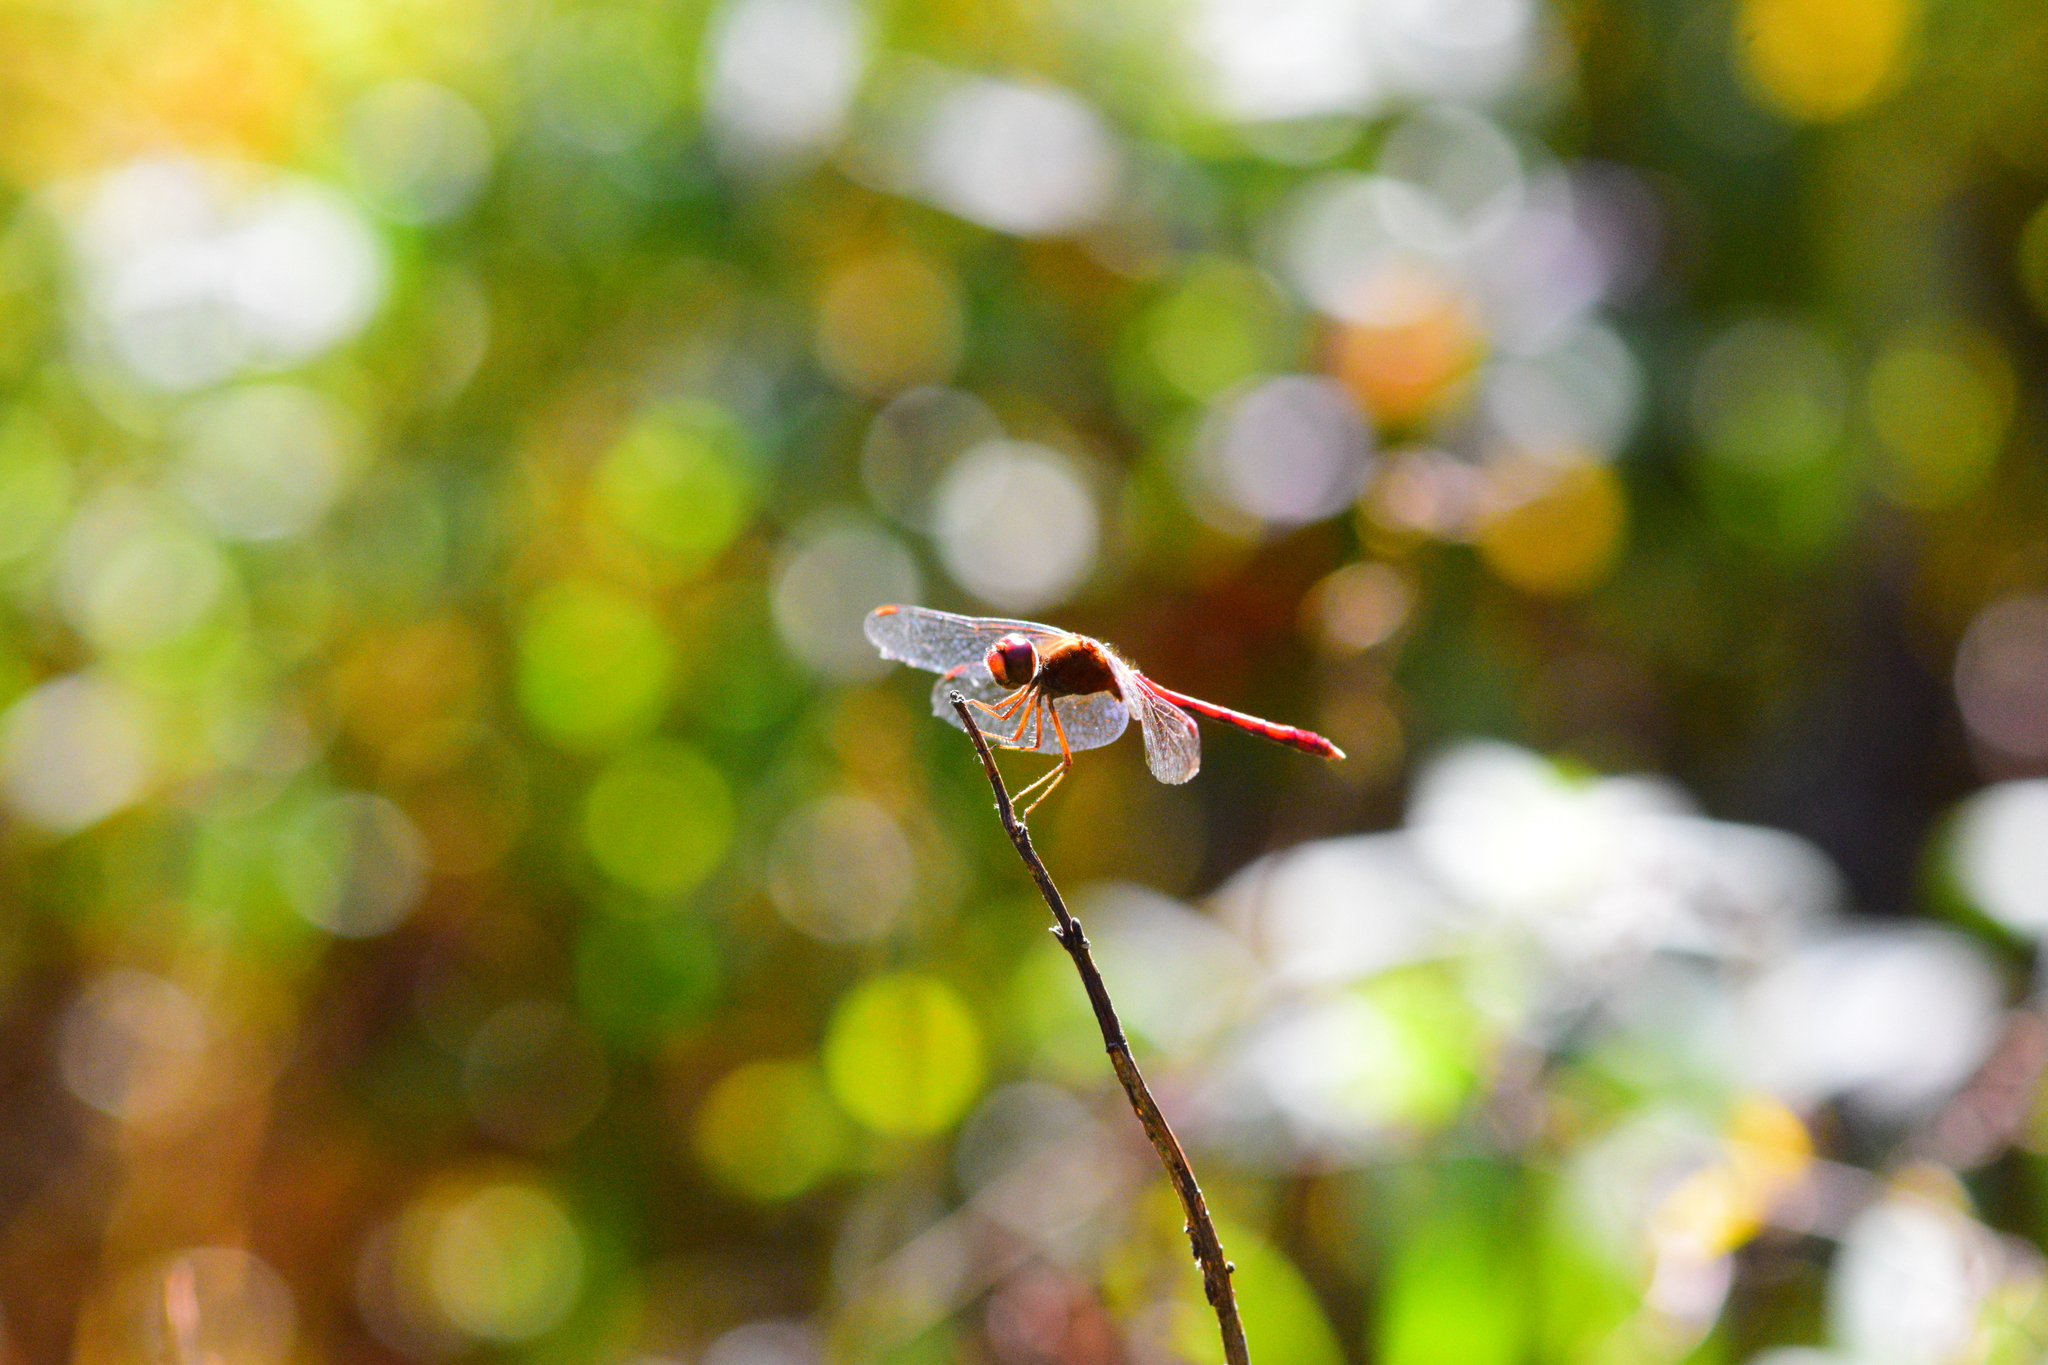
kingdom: Animalia
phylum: Arthropoda
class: Insecta
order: Odonata
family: Libellulidae
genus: Sympetrum
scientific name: Sympetrum vicinum
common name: Autumn meadowhawk
